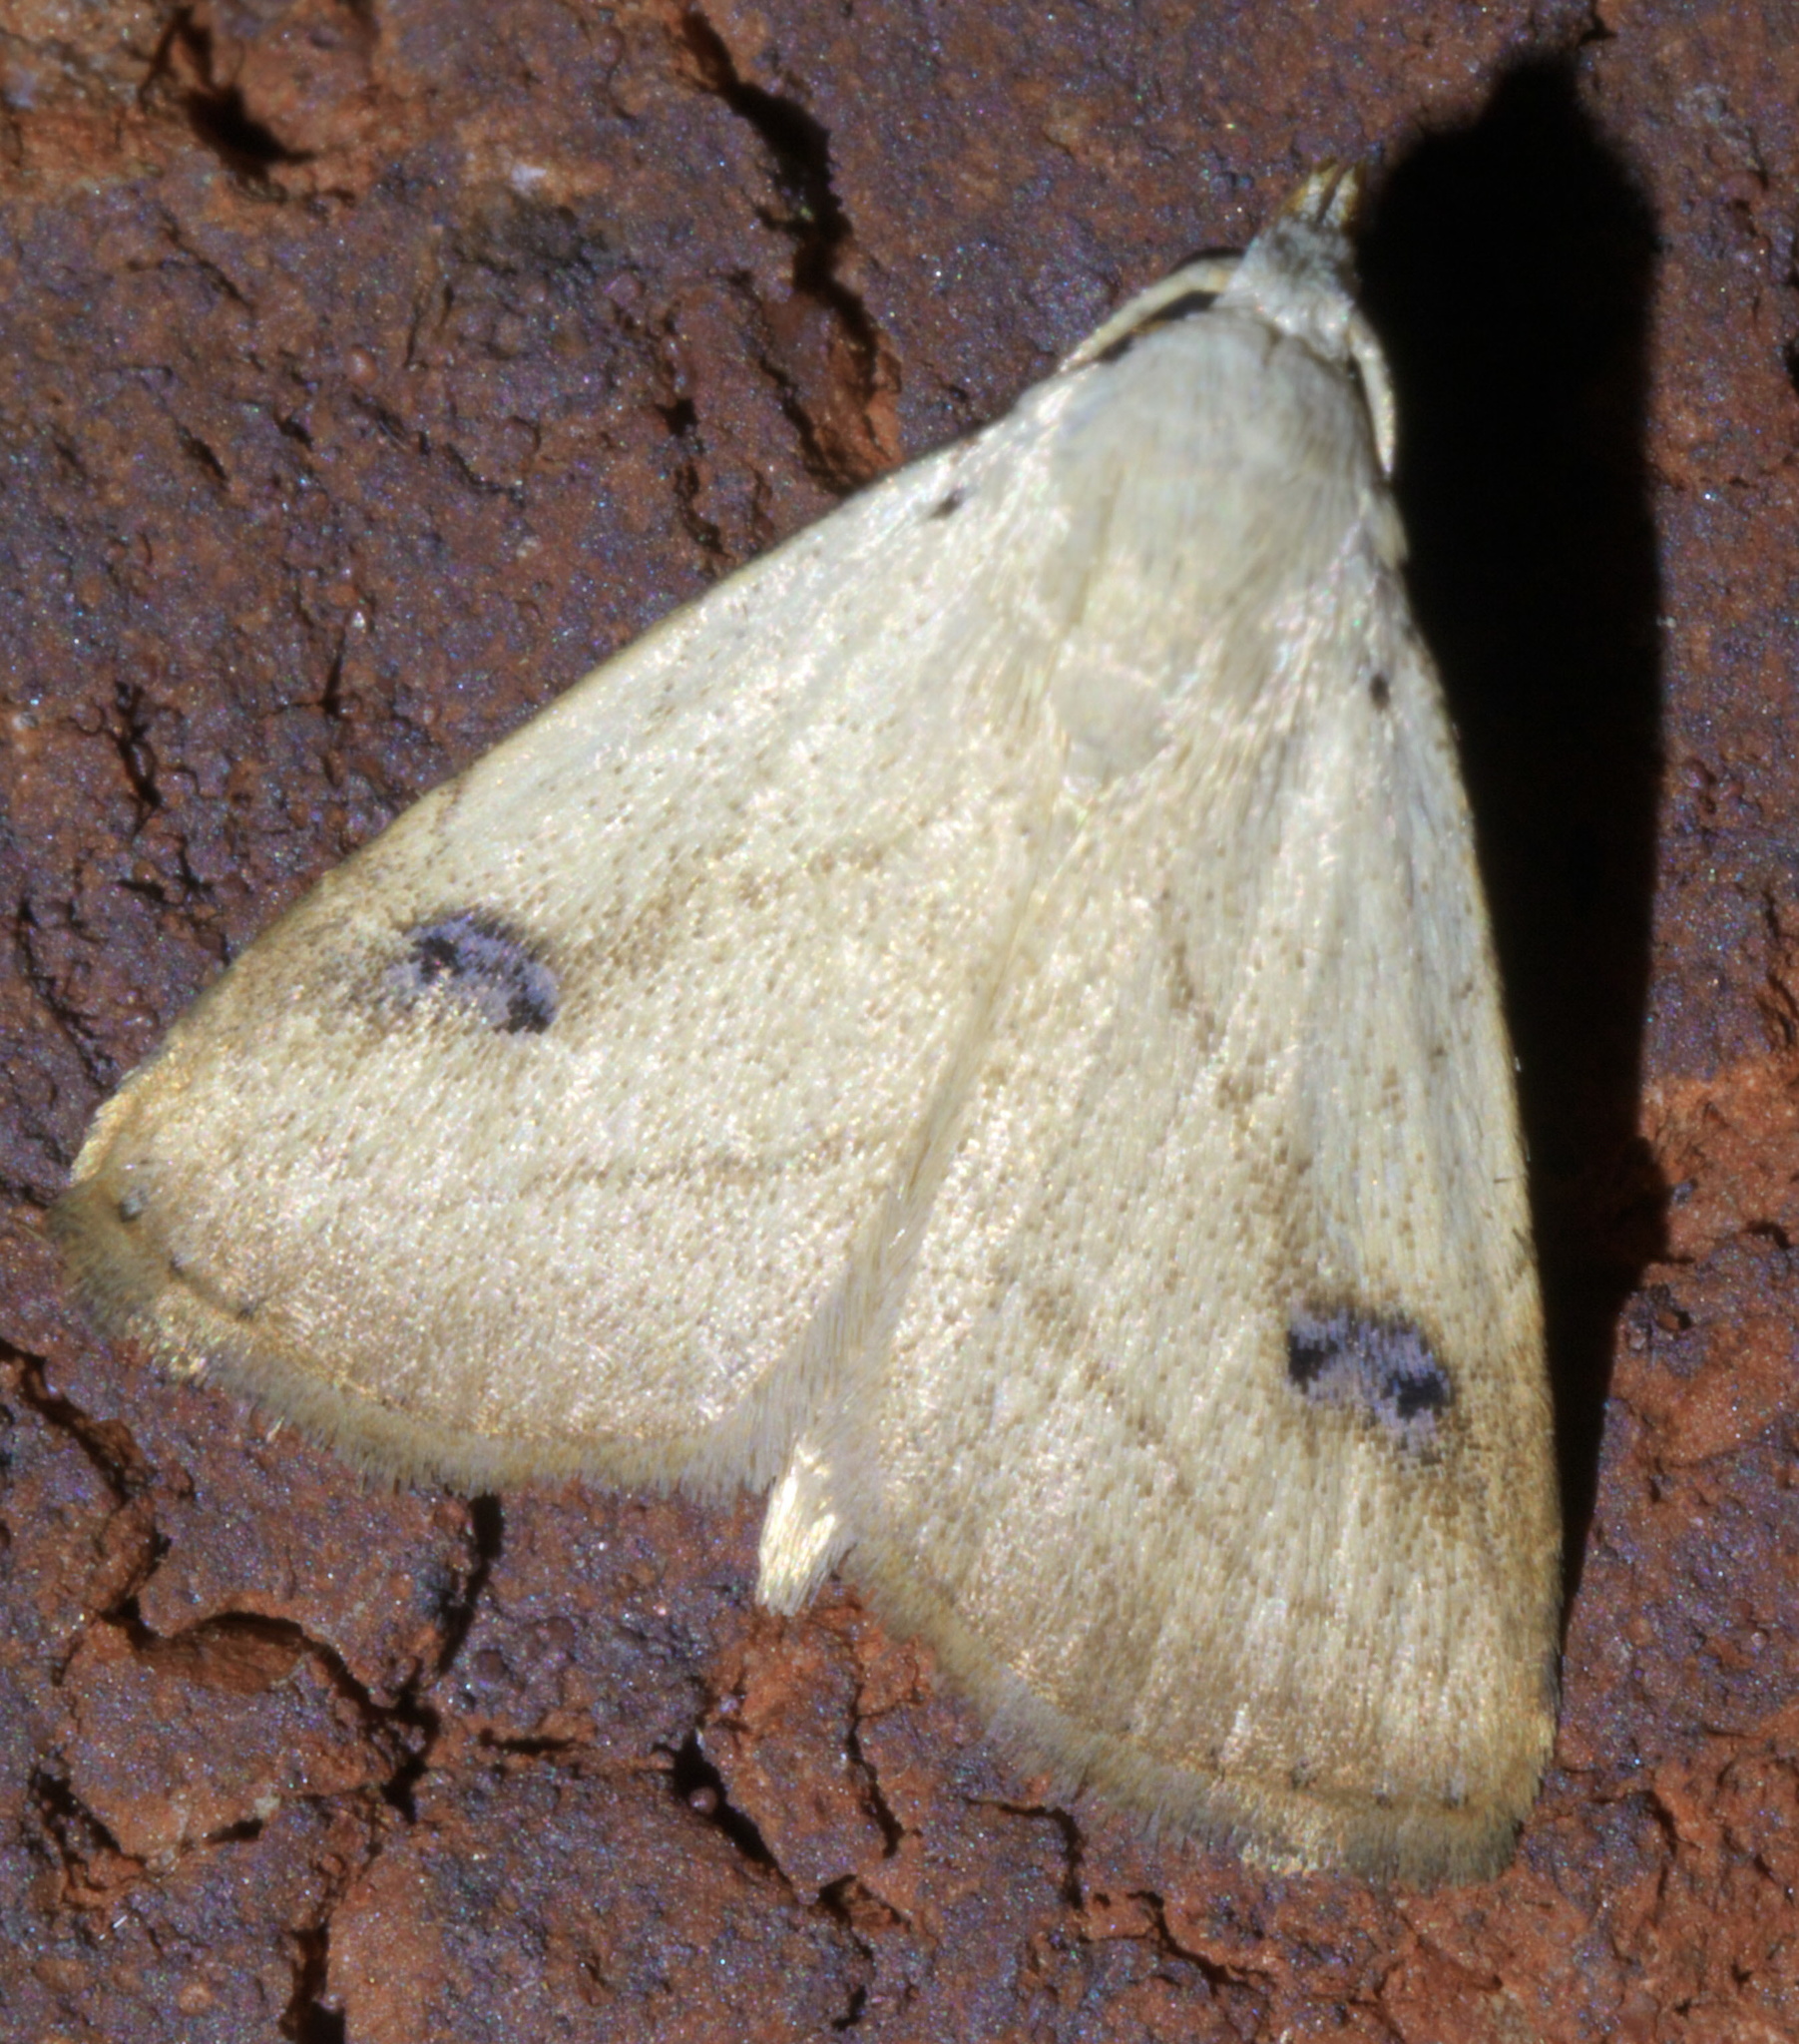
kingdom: Animalia
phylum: Arthropoda
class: Insecta
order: Lepidoptera
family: Erebidae
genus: Rivula
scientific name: Rivula propinqualis
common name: Spotted grass moth
